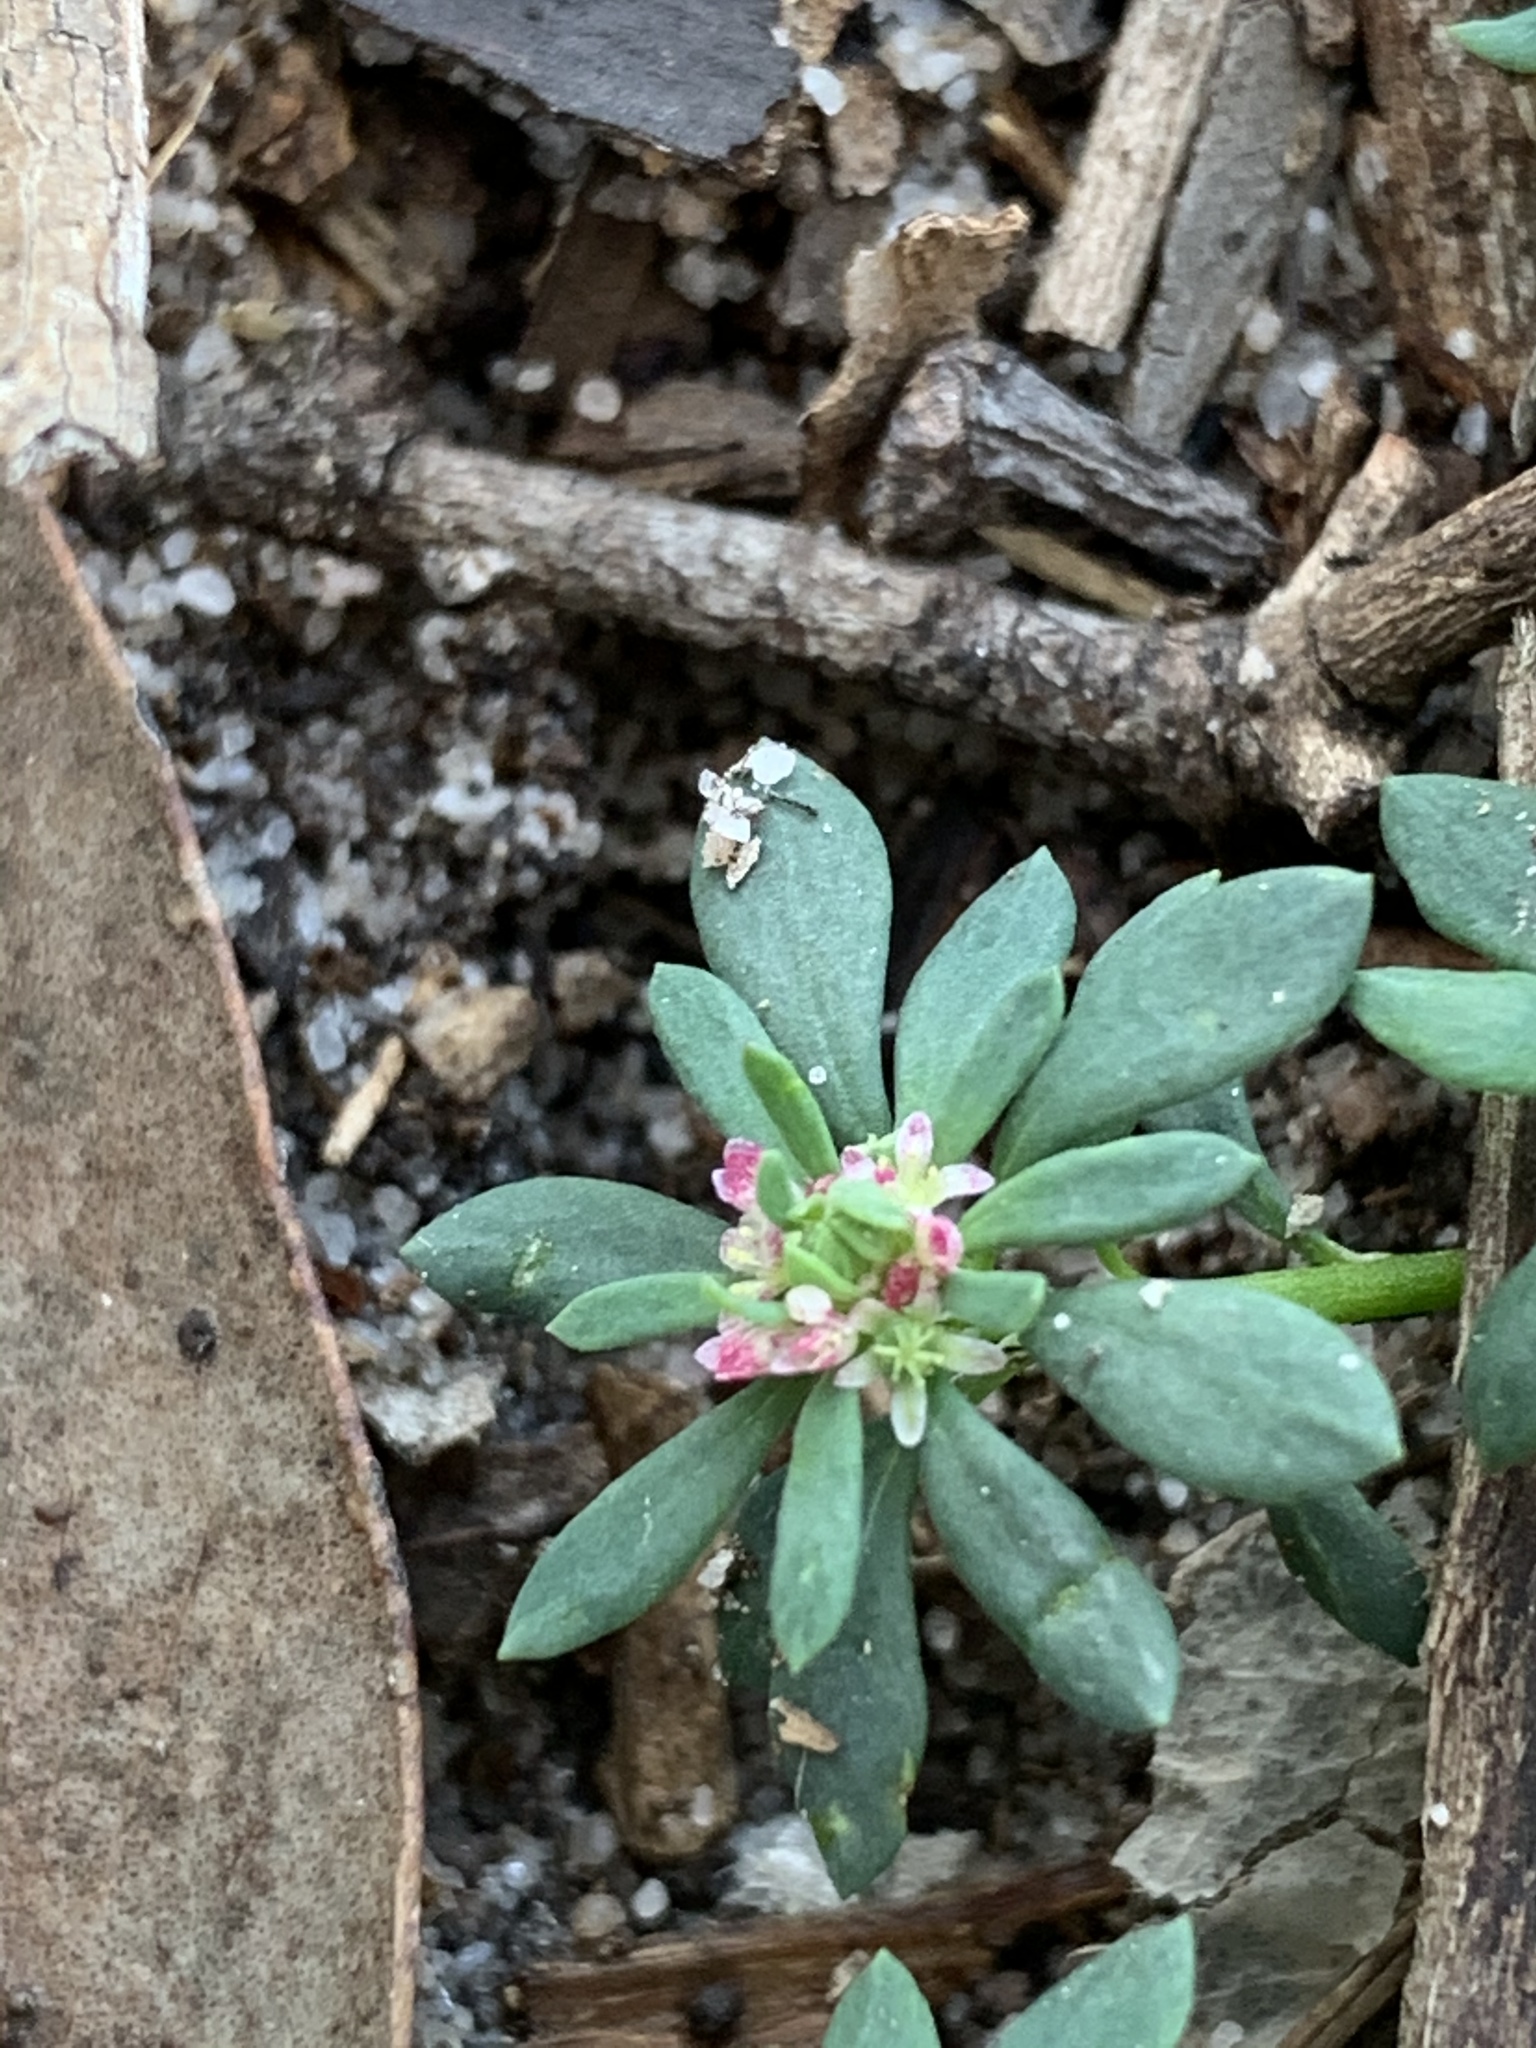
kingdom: Plantae
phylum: Tracheophyta
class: Magnoliopsida
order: Malpighiales
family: Phyllanthaceae
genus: Poranthera
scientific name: Poranthera microphylla
